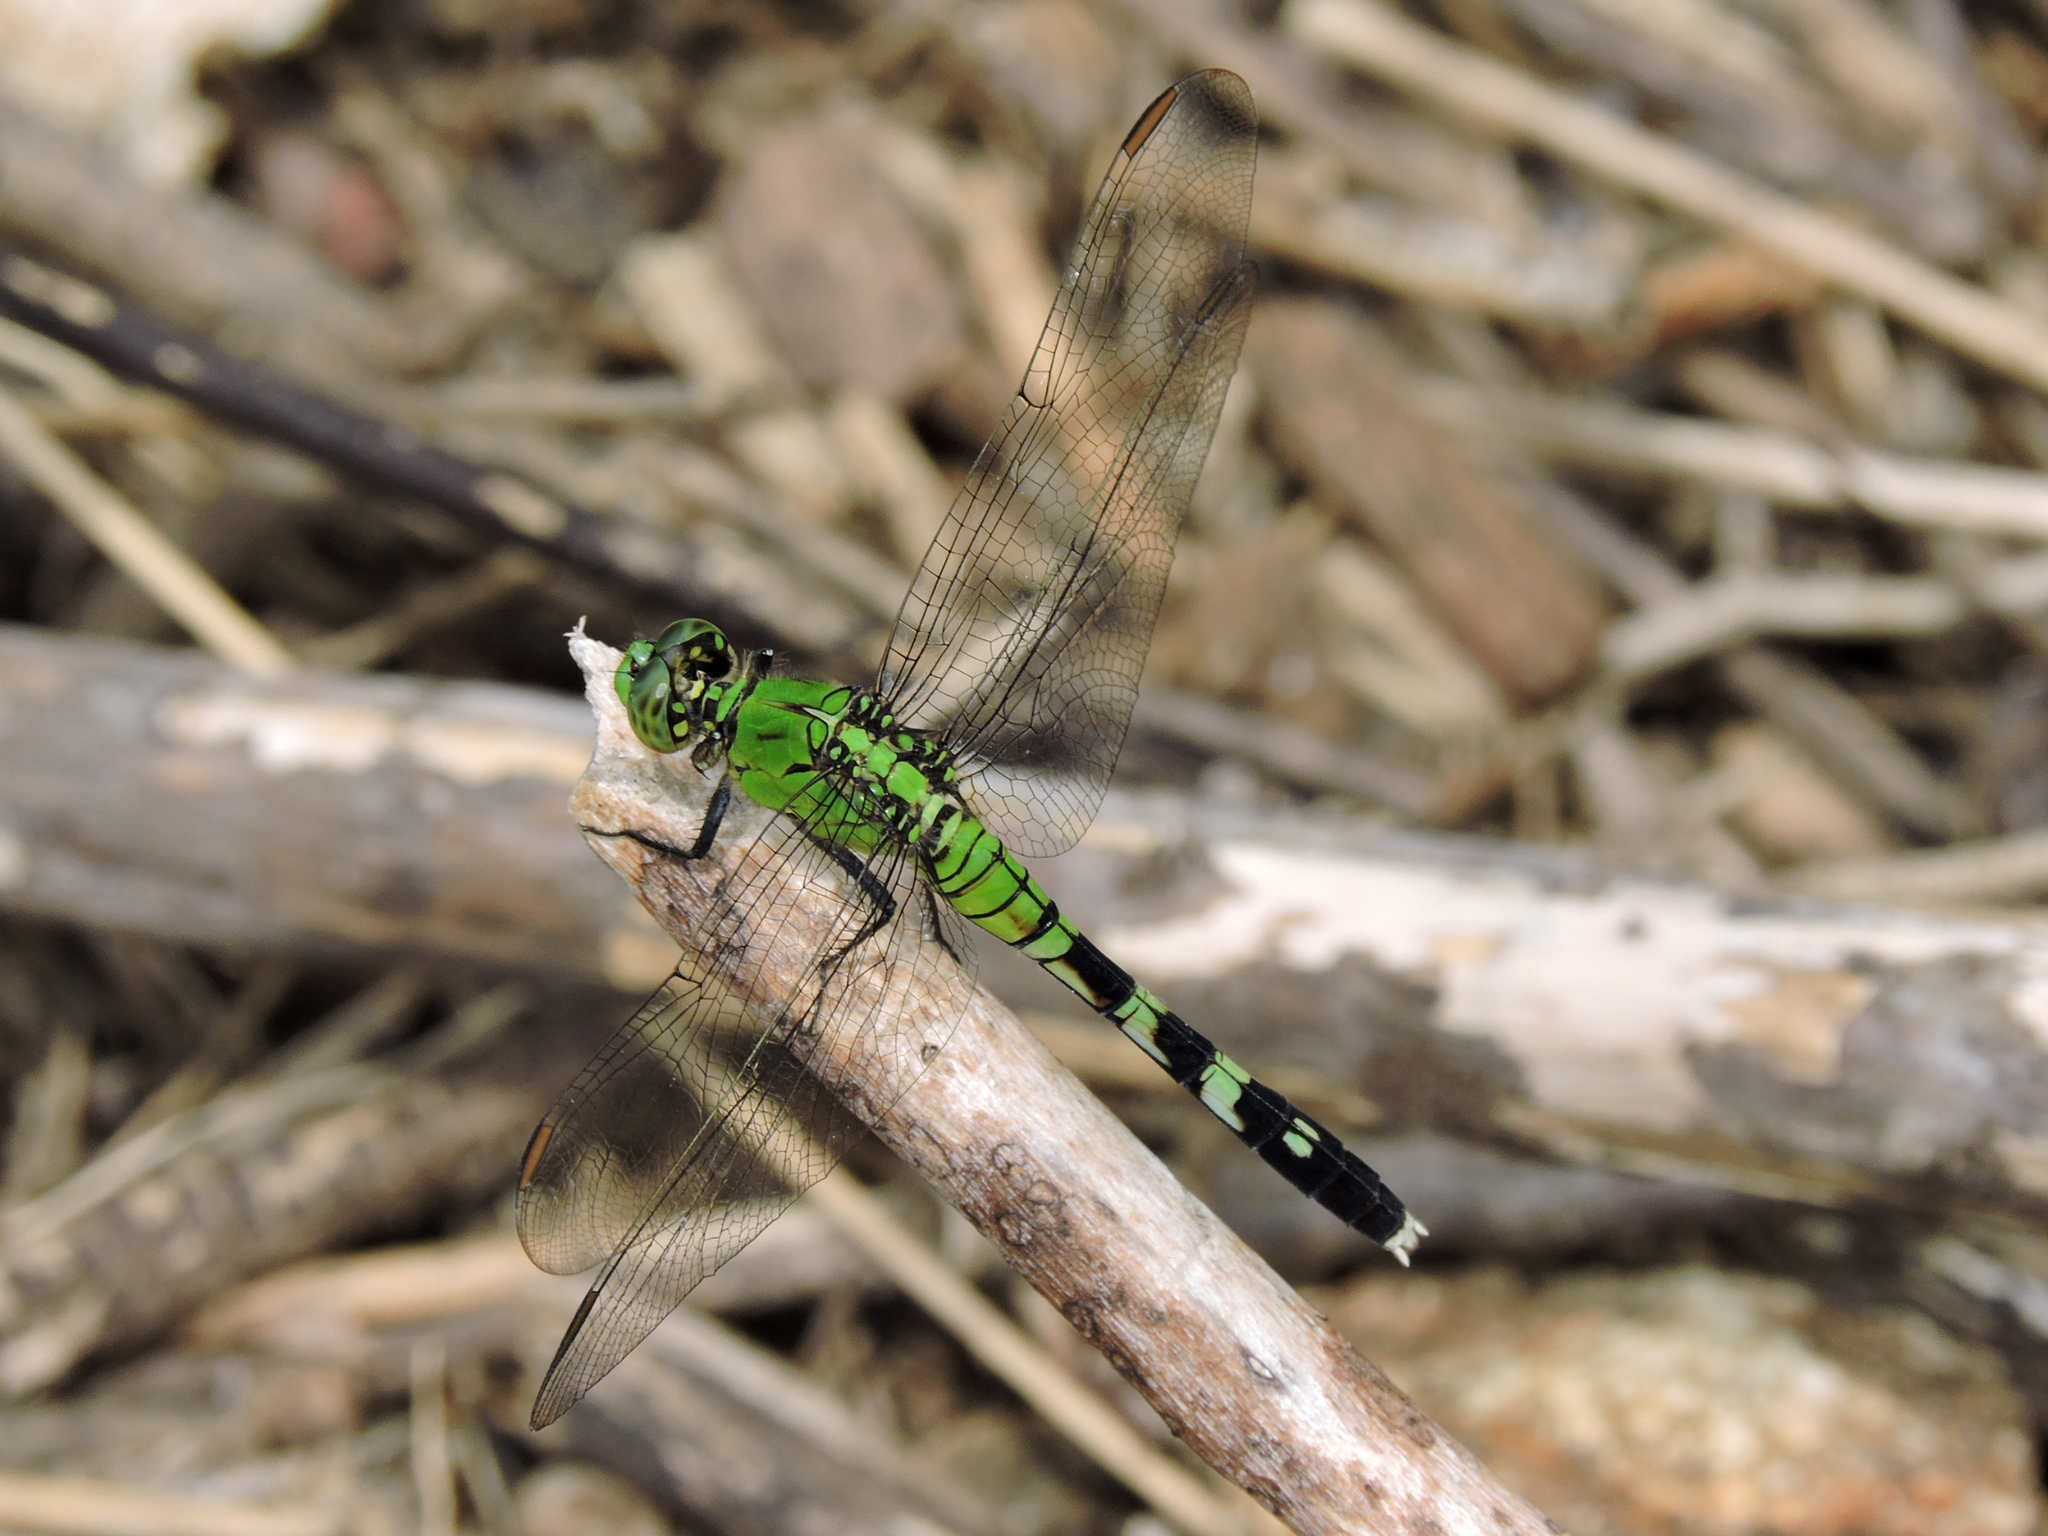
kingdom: Animalia
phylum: Arthropoda
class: Insecta
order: Odonata
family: Libellulidae
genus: Erythemis
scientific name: Erythemis simplicicollis
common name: Eastern pondhawk
